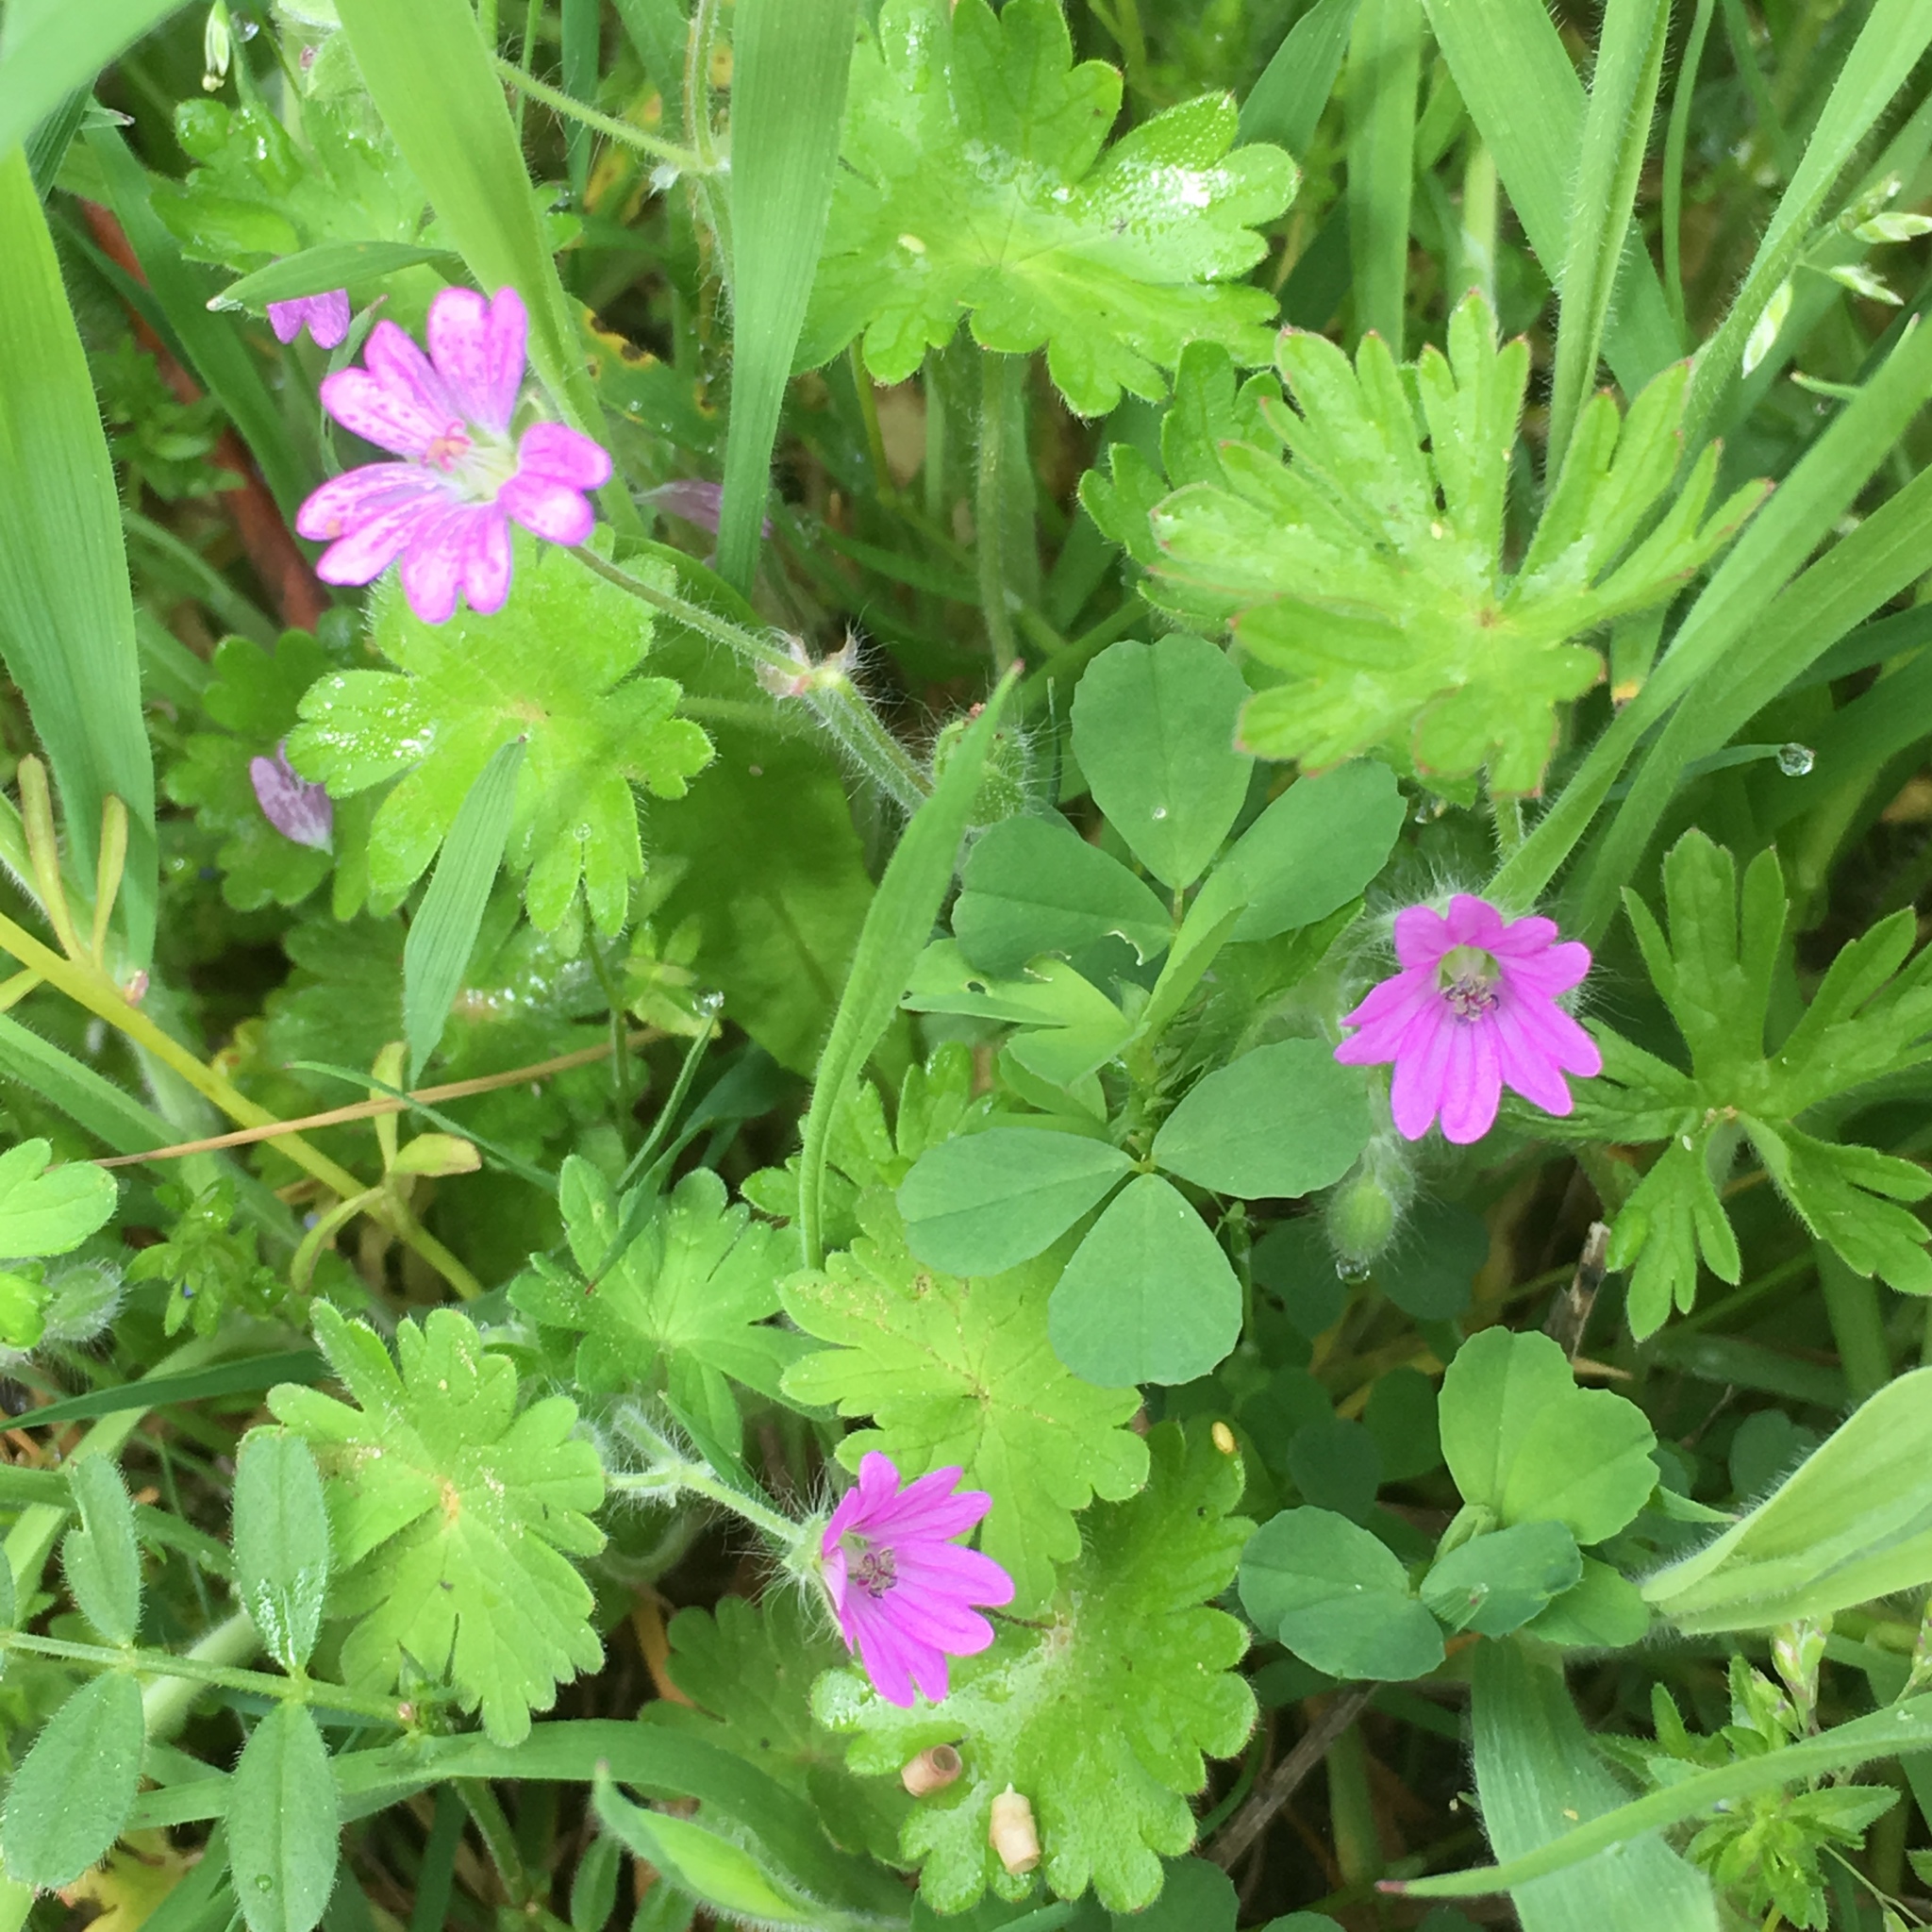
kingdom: Plantae
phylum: Tracheophyta
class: Magnoliopsida
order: Geraniales
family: Geraniaceae
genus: Geranium
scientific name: Geranium molle
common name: Dove's-foot crane's-bill
